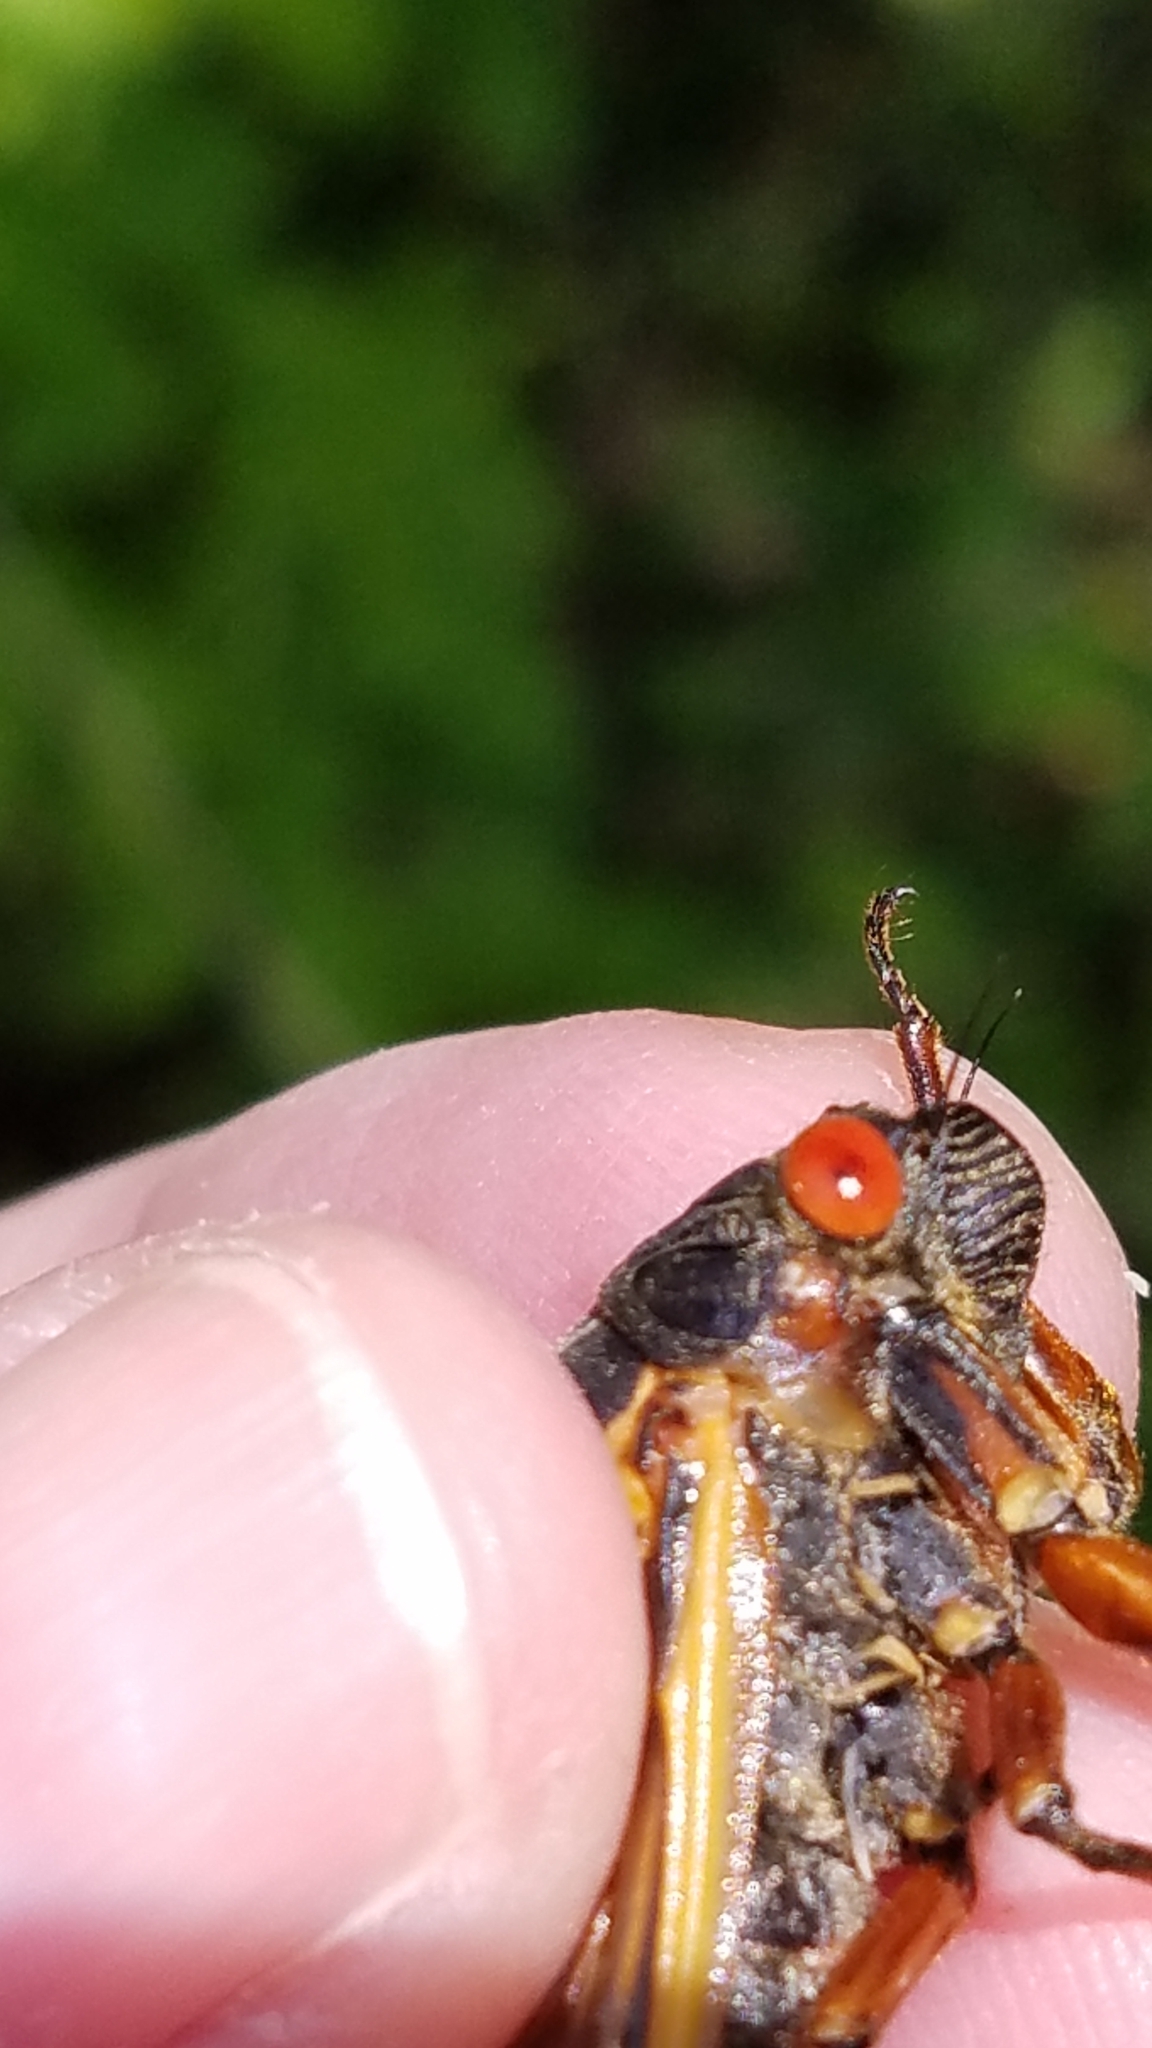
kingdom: Animalia
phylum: Arthropoda
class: Insecta
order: Hemiptera
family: Cicadidae
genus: Magicicada
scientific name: Magicicada septendecim
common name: Periodical cicada
